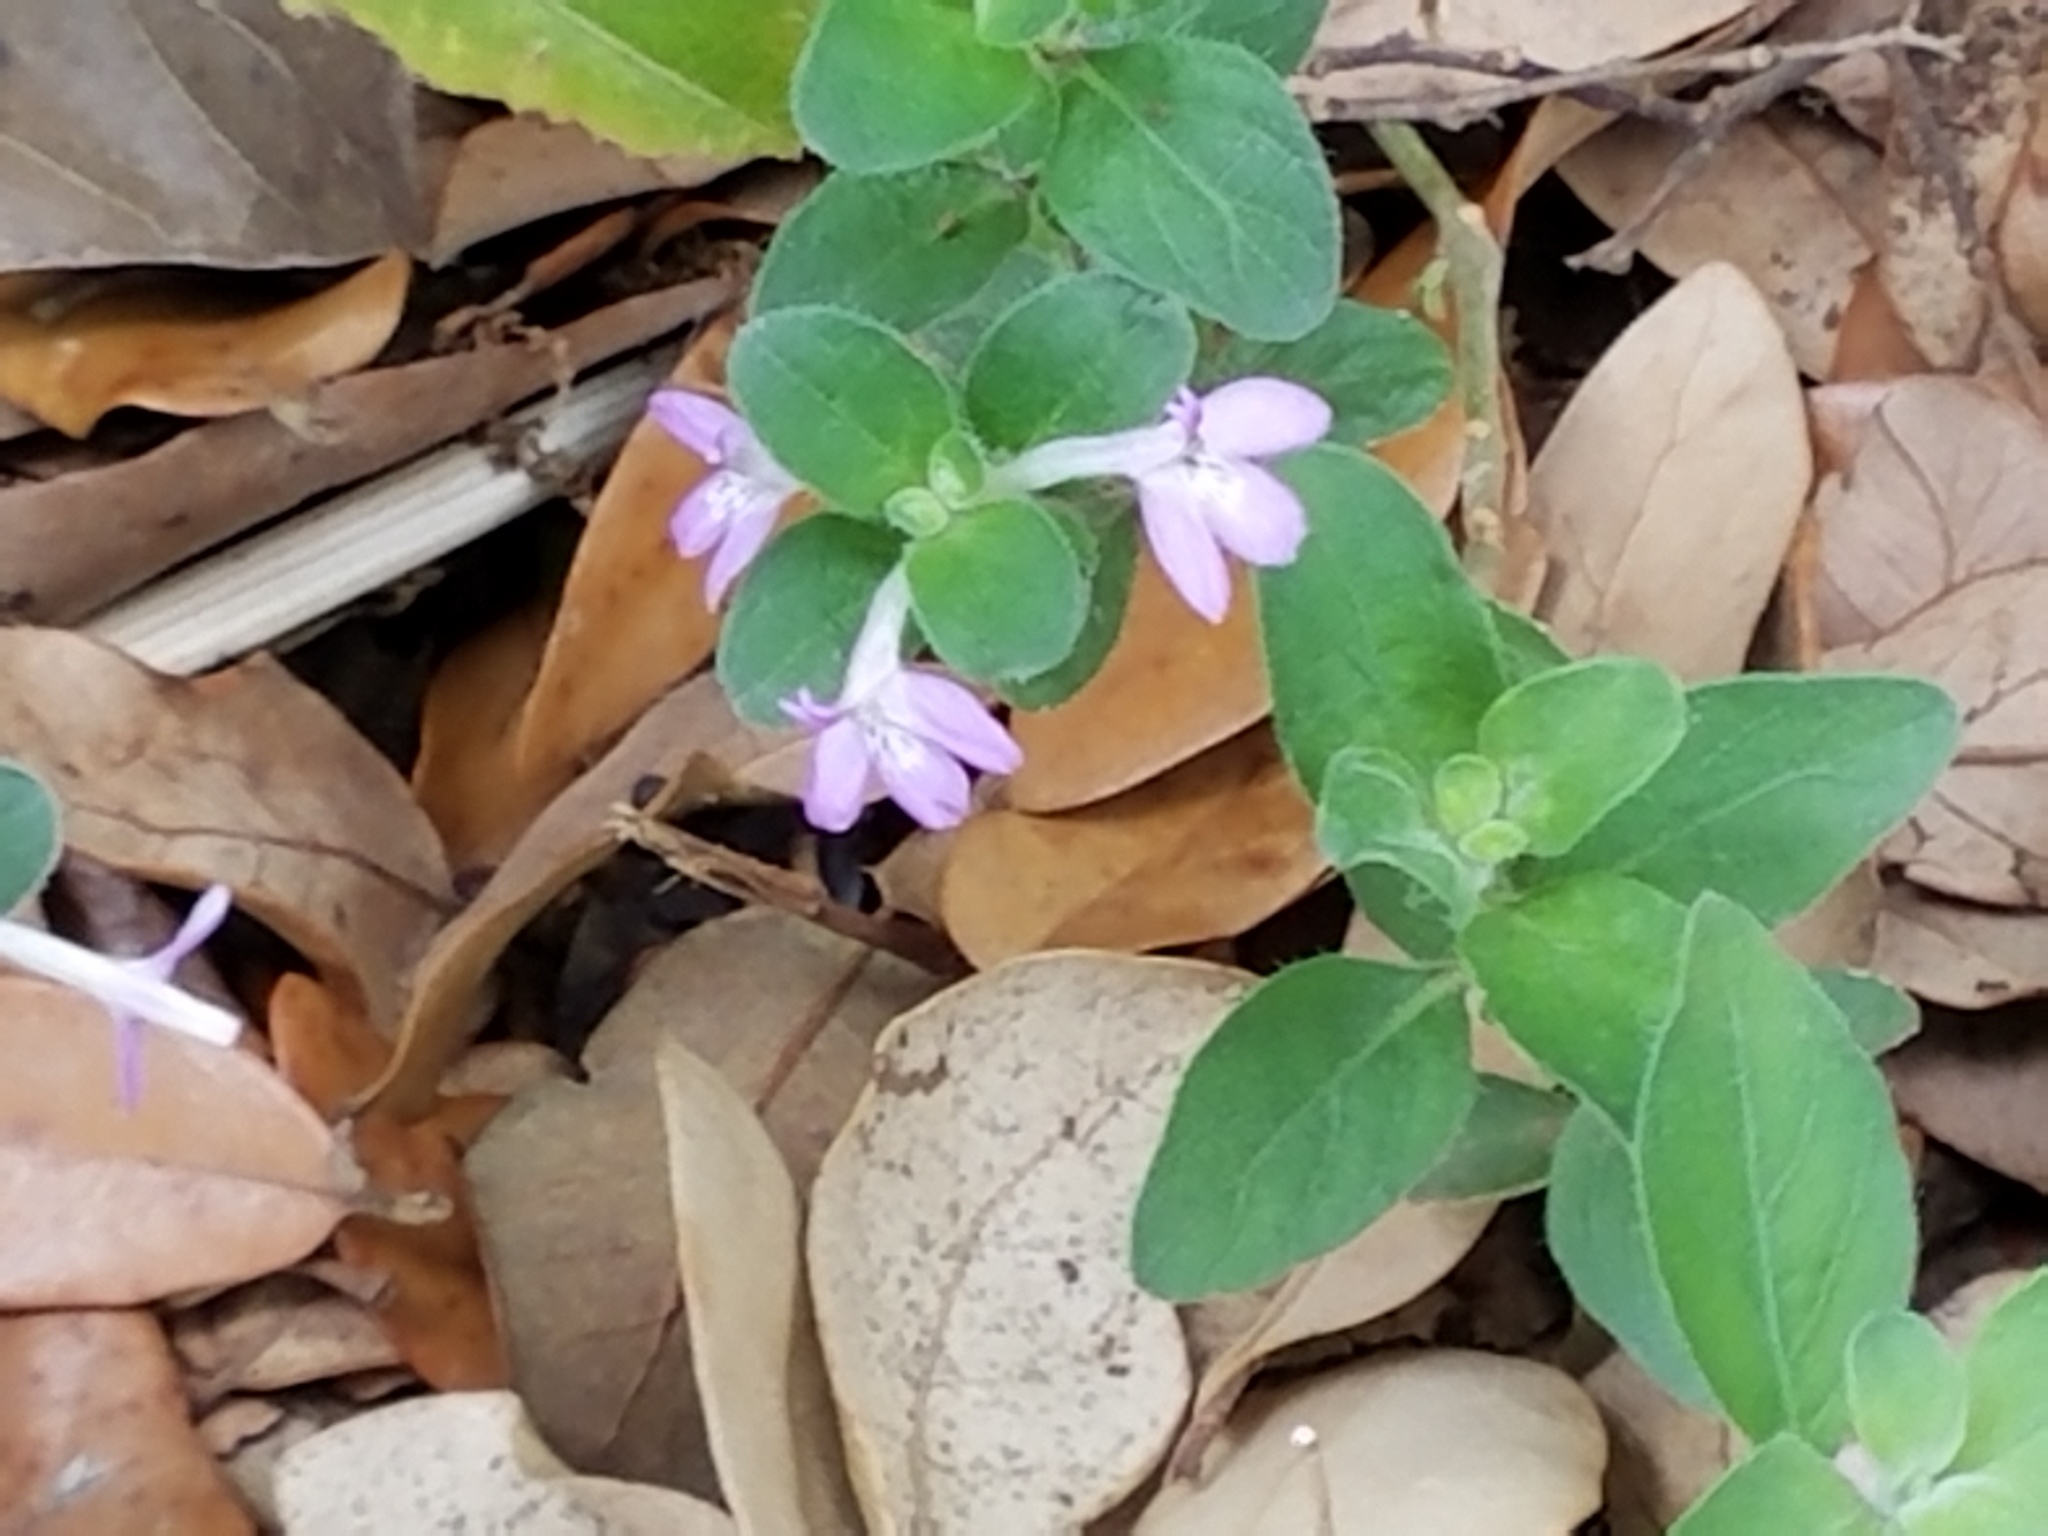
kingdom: Plantae
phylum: Tracheophyta
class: Magnoliopsida
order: Lamiales
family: Acanthaceae
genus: Justicia
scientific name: Justicia pilosella
